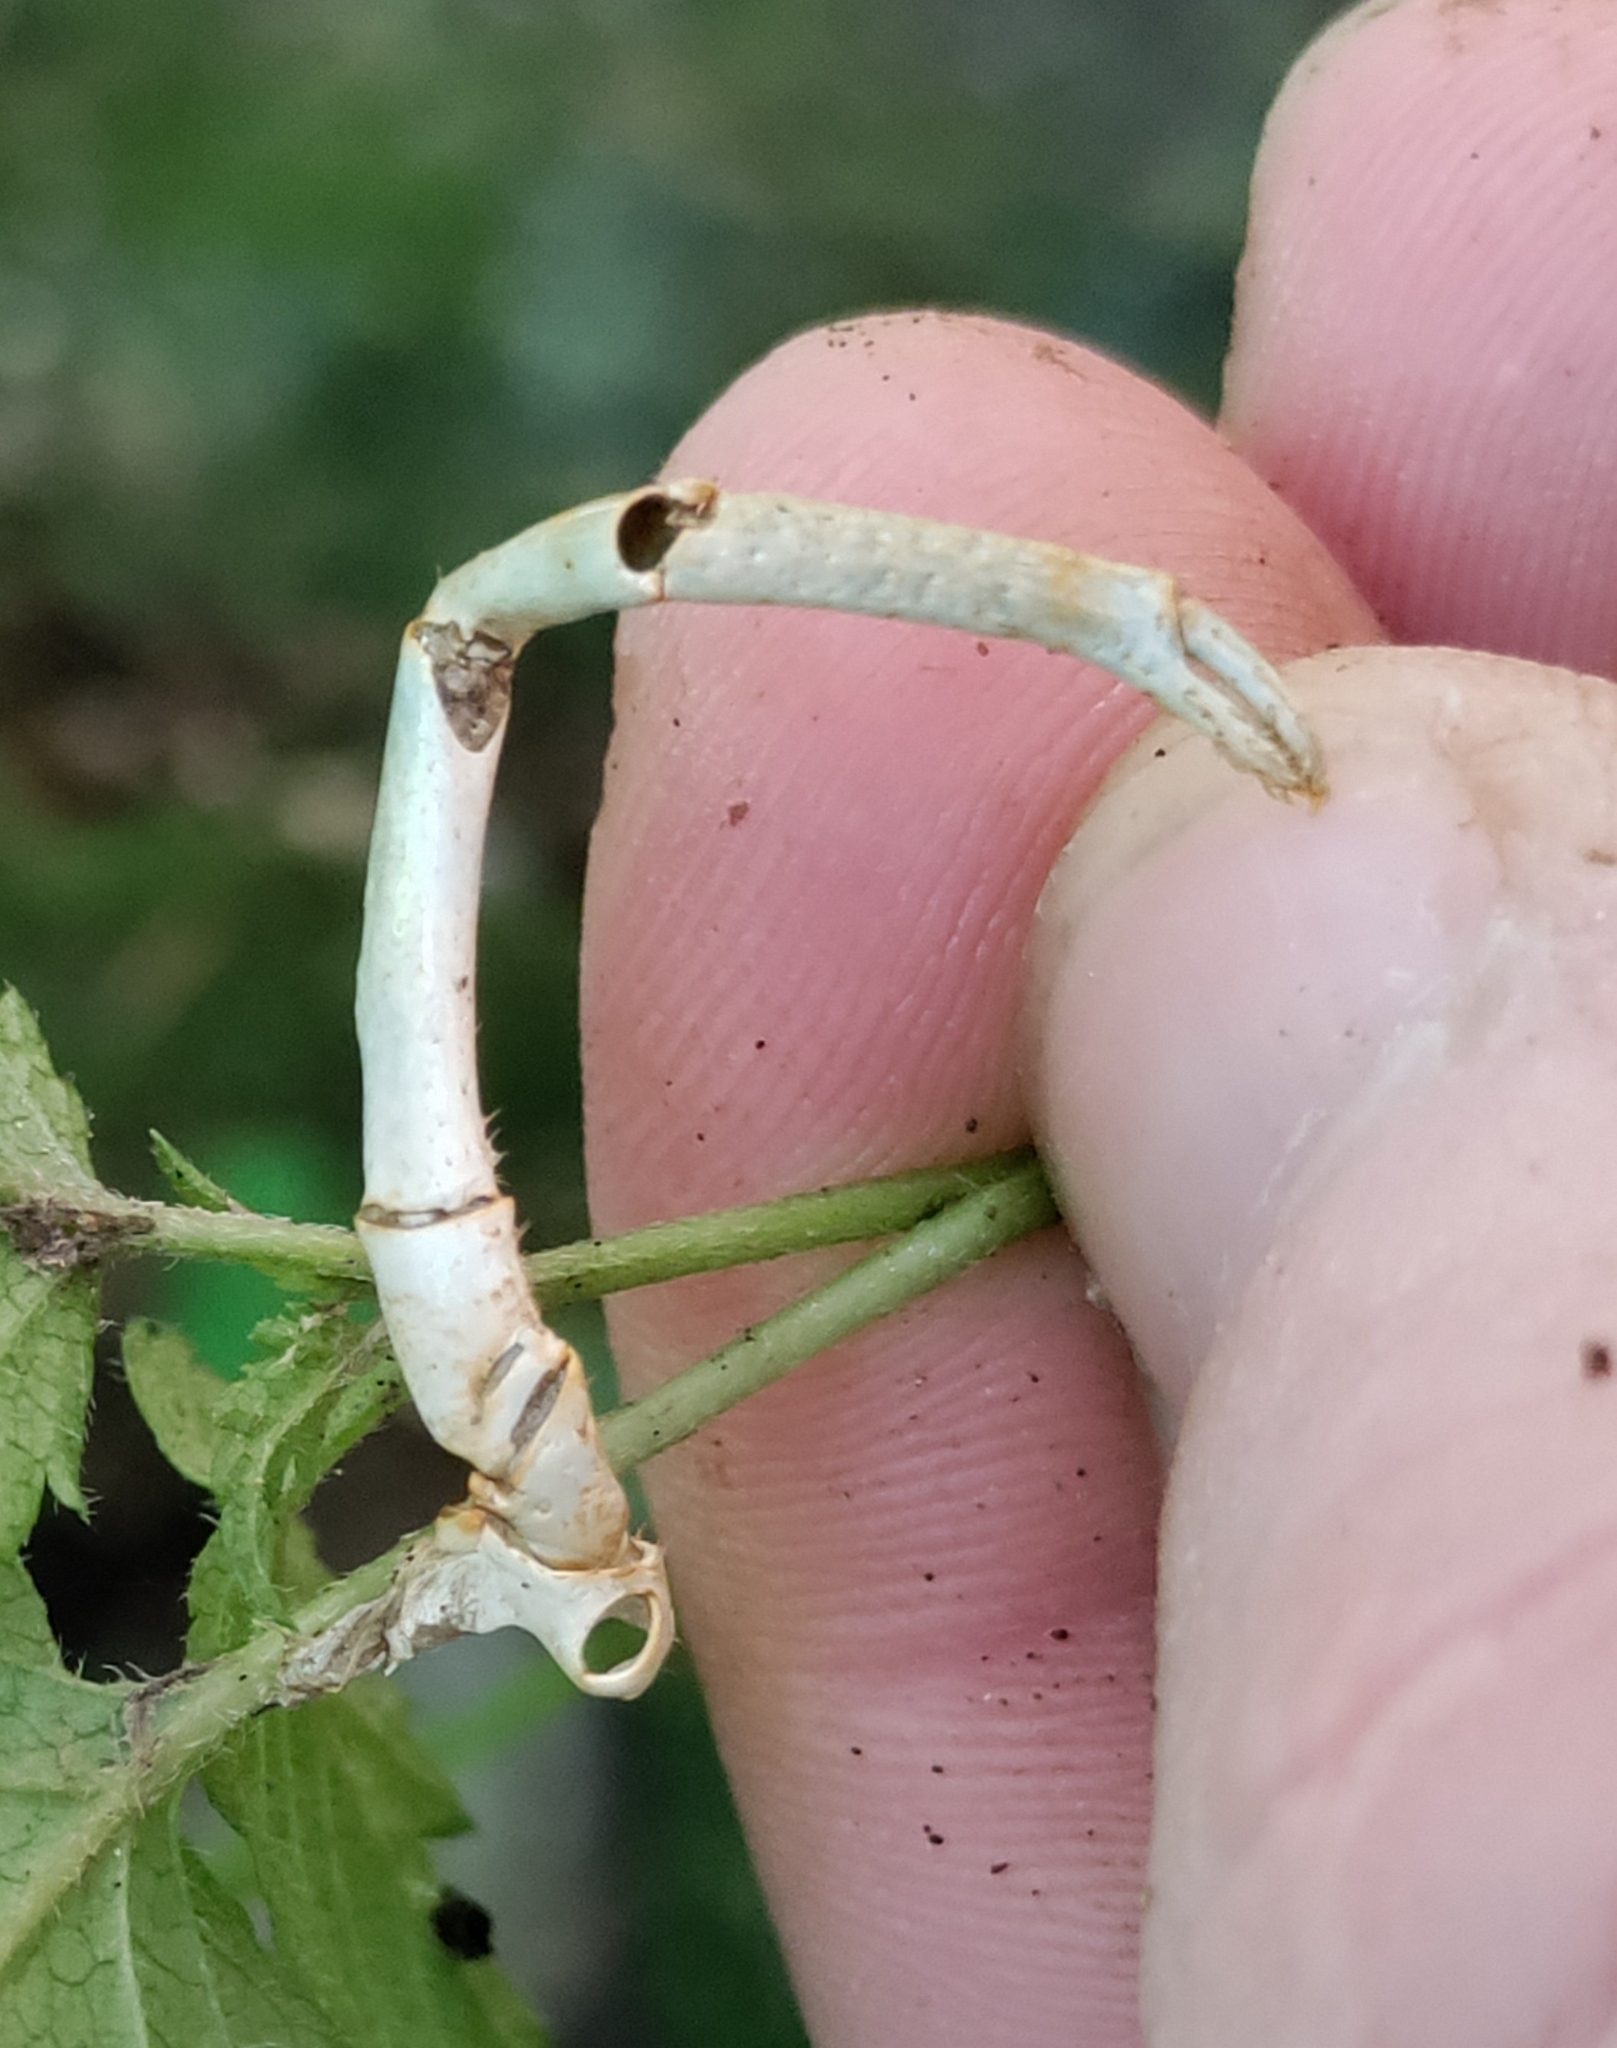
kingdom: Animalia
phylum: Arthropoda
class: Malacostraca
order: Decapoda
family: Astacidae
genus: Austropotamobius
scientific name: Austropotamobius torrentium
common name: Stone crayfish
